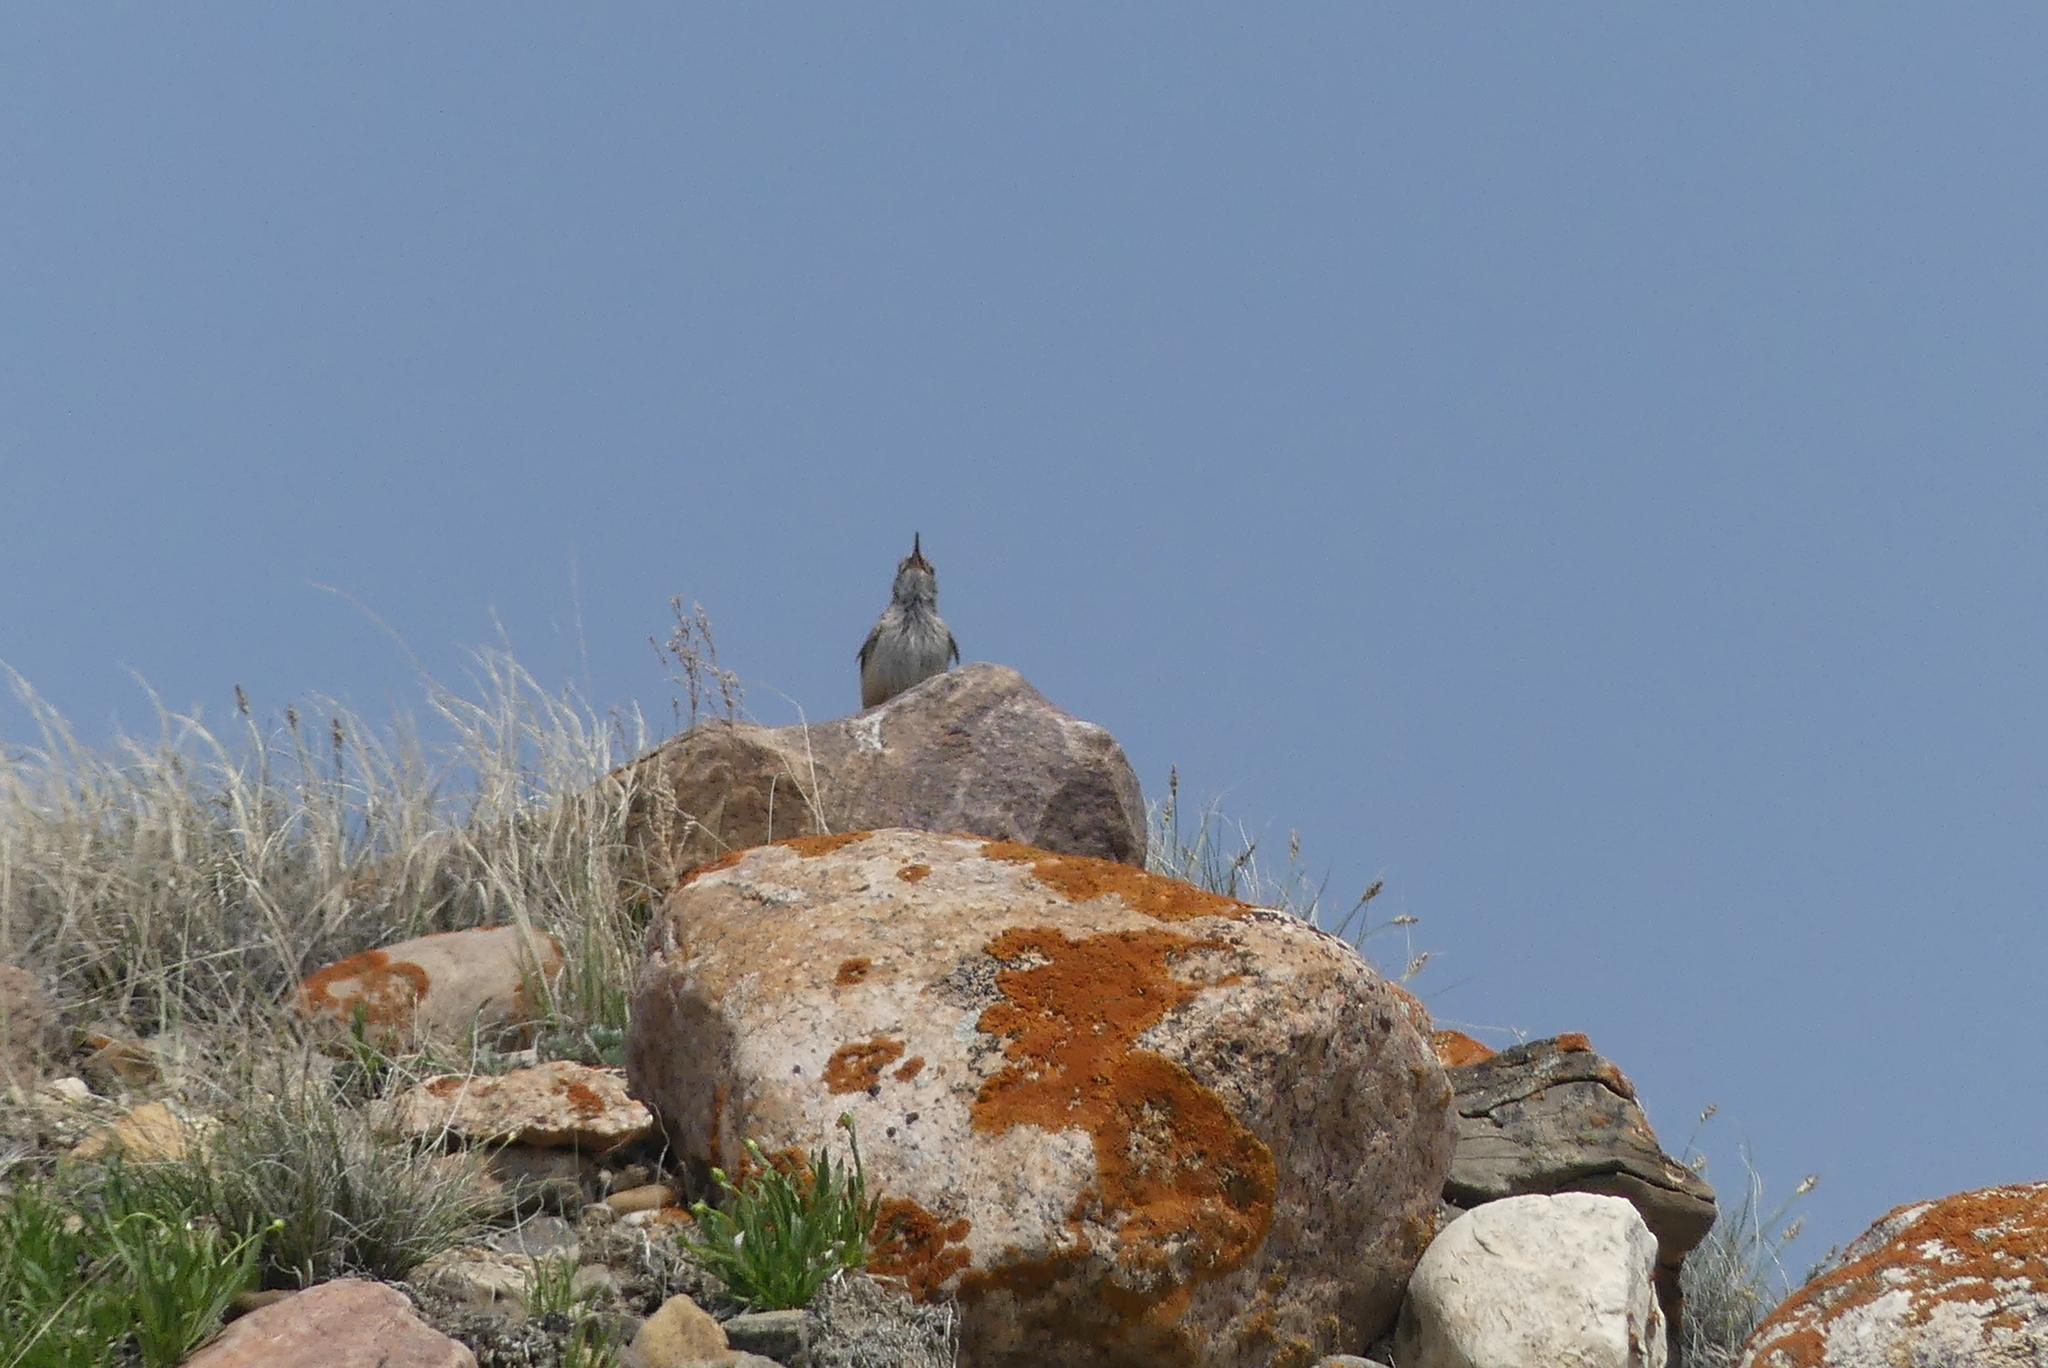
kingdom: Animalia
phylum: Chordata
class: Aves
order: Passeriformes
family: Troglodytidae
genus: Salpinctes
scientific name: Salpinctes obsoletus
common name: Rock wren
